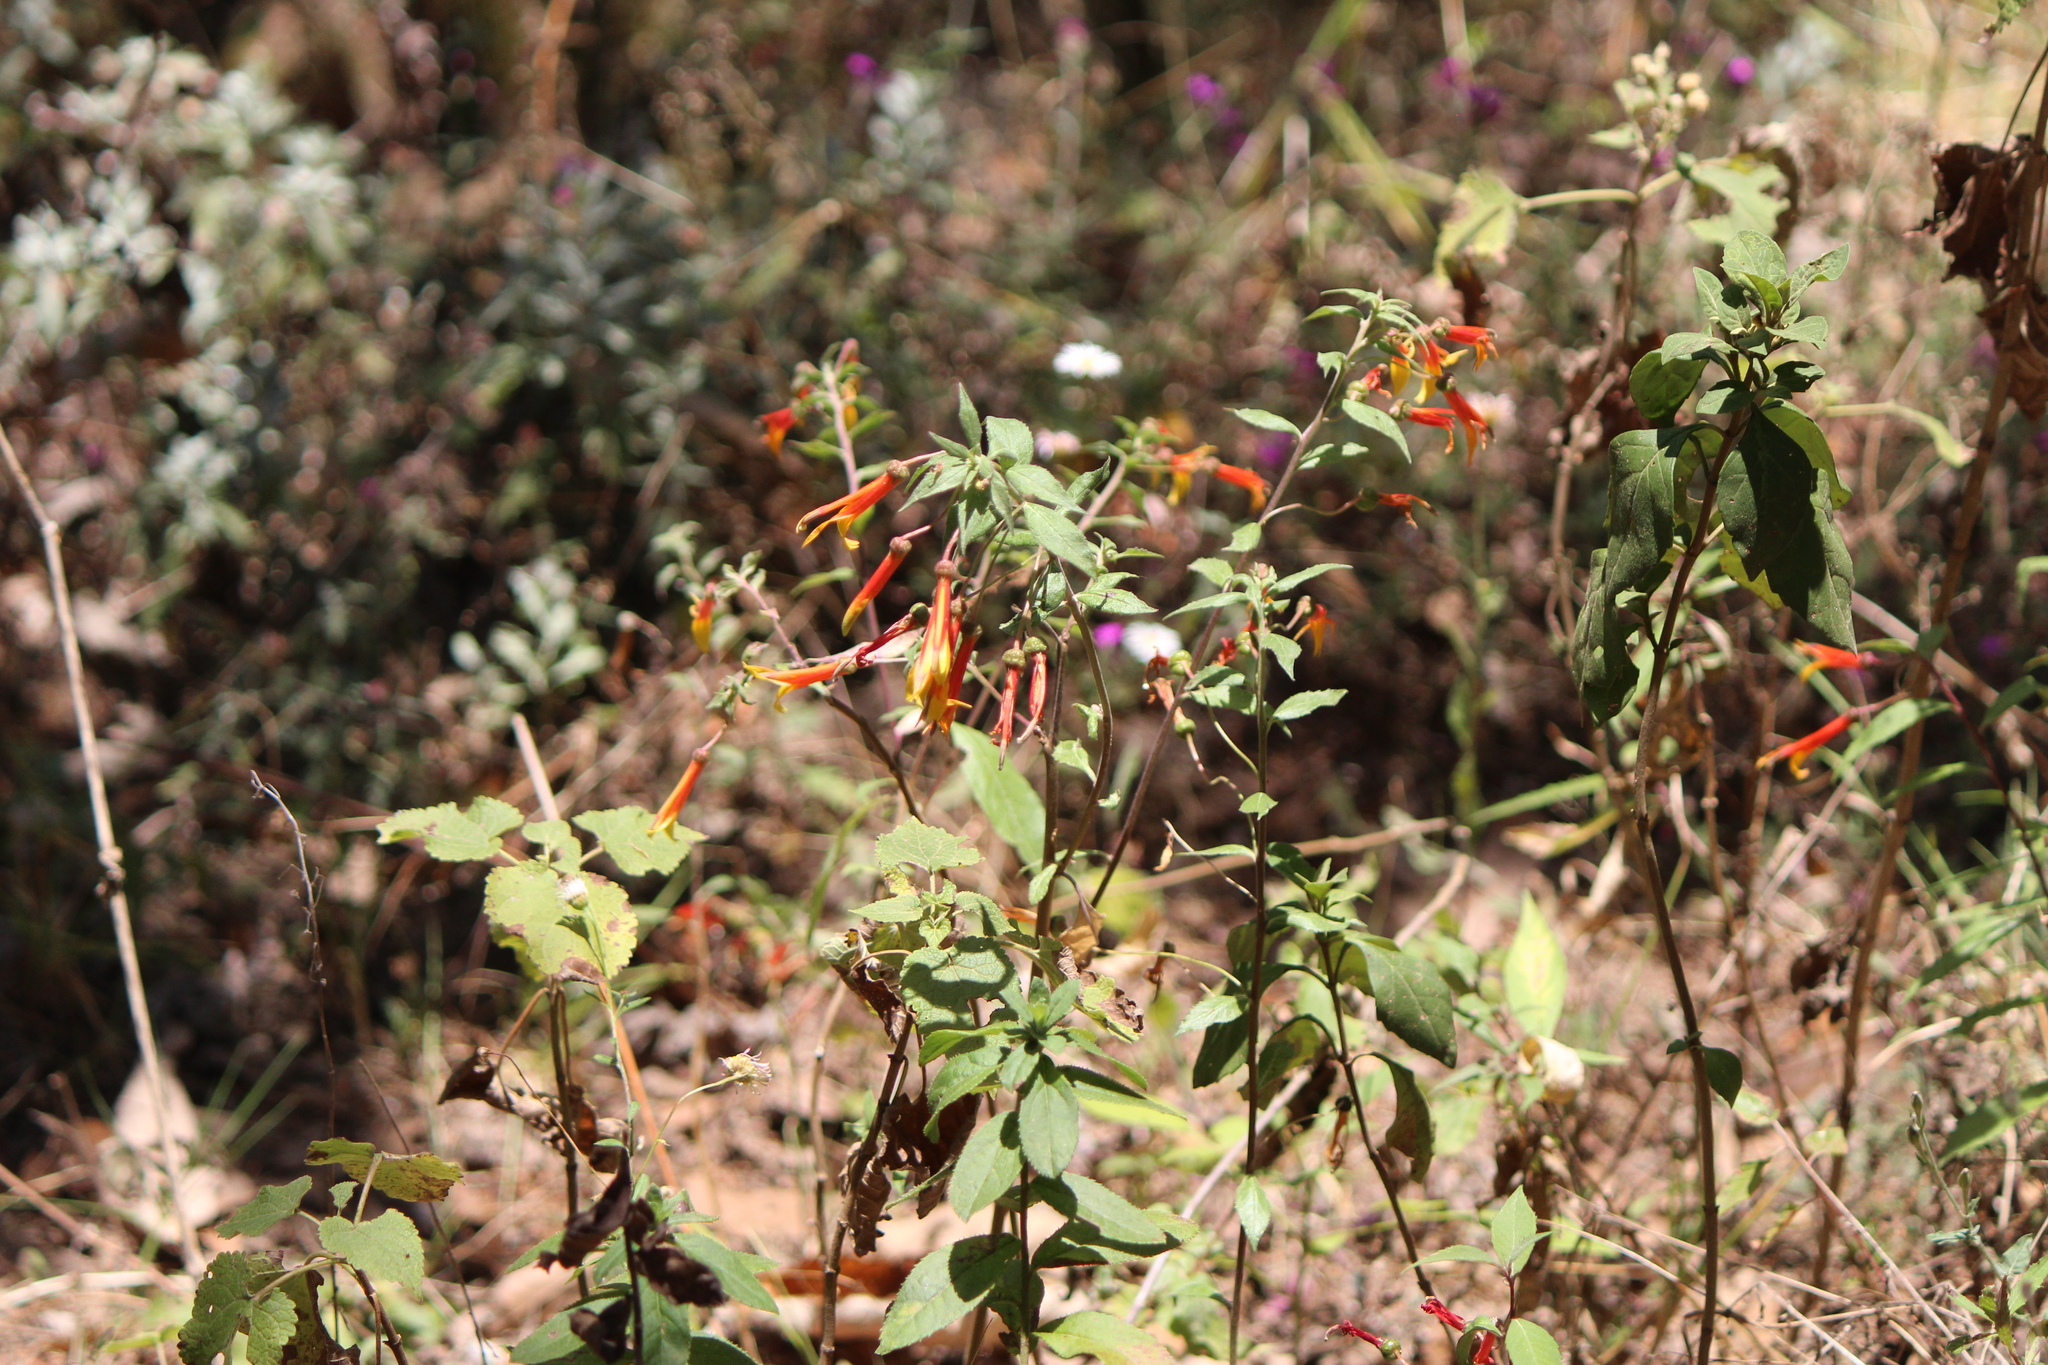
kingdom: Plantae
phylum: Tracheophyta
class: Magnoliopsida
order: Asterales
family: Campanulaceae
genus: Lobelia
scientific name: Lobelia laxiflora
